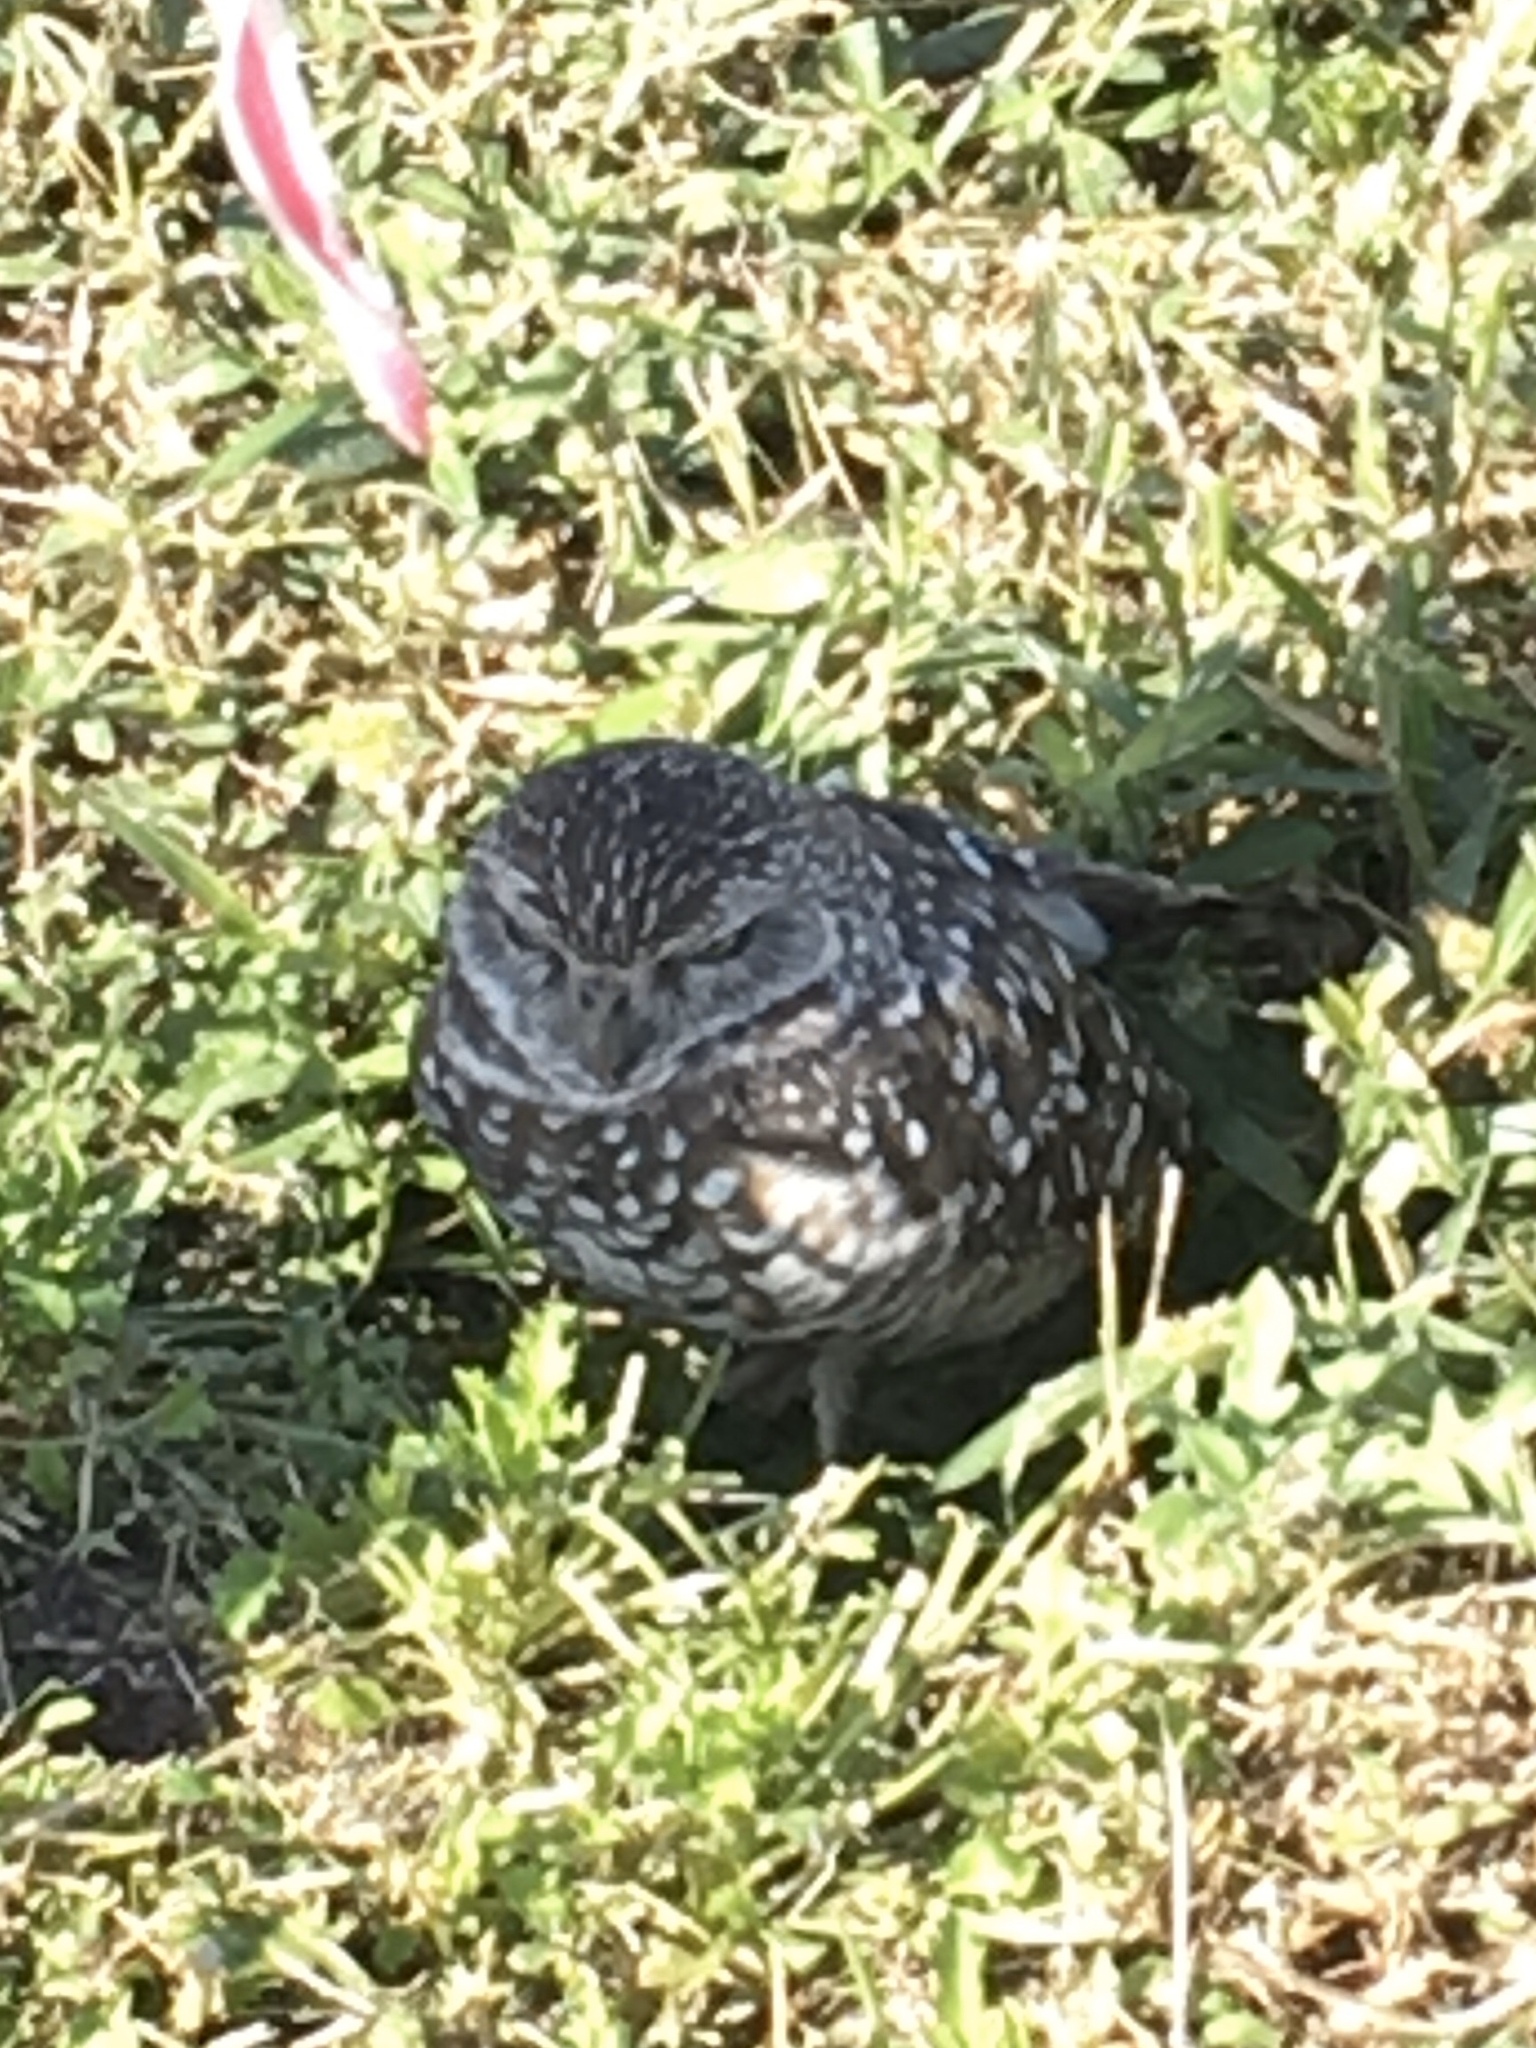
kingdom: Animalia
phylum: Chordata
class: Aves
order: Strigiformes
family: Strigidae
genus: Athene
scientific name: Athene cunicularia
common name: Burrowing owl
